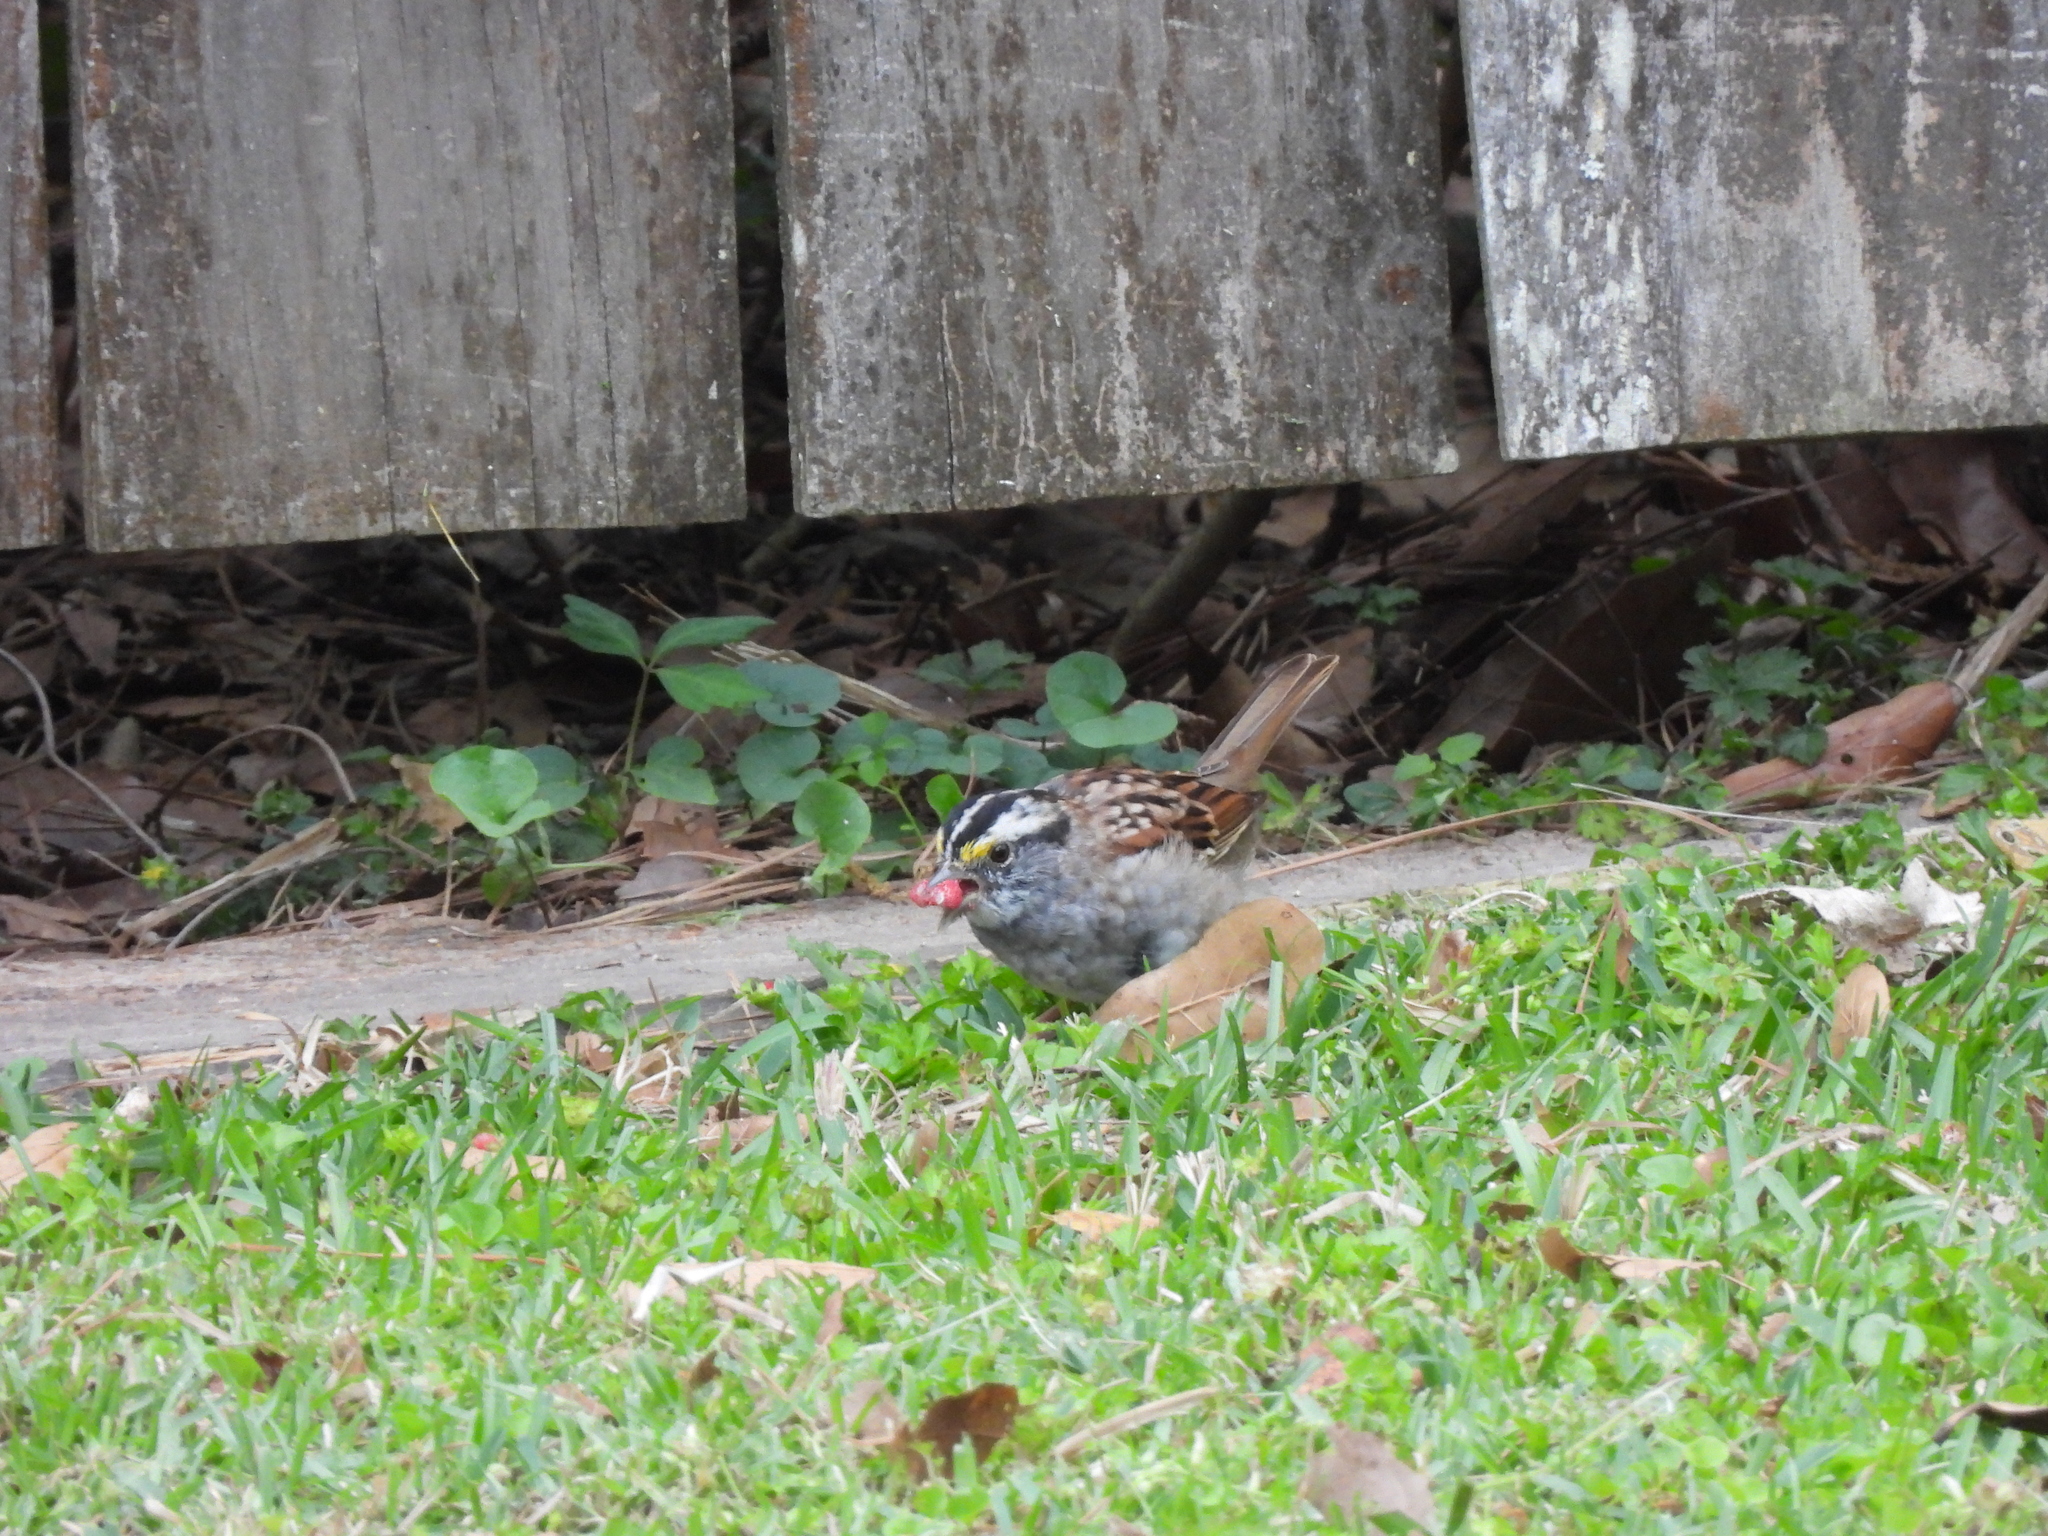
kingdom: Animalia
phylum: Chordata
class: Aves
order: Passeriformes
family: Passerellidae
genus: Zonotrichia
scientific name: Zonotrichia albicollis
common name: White-throated sparrow
